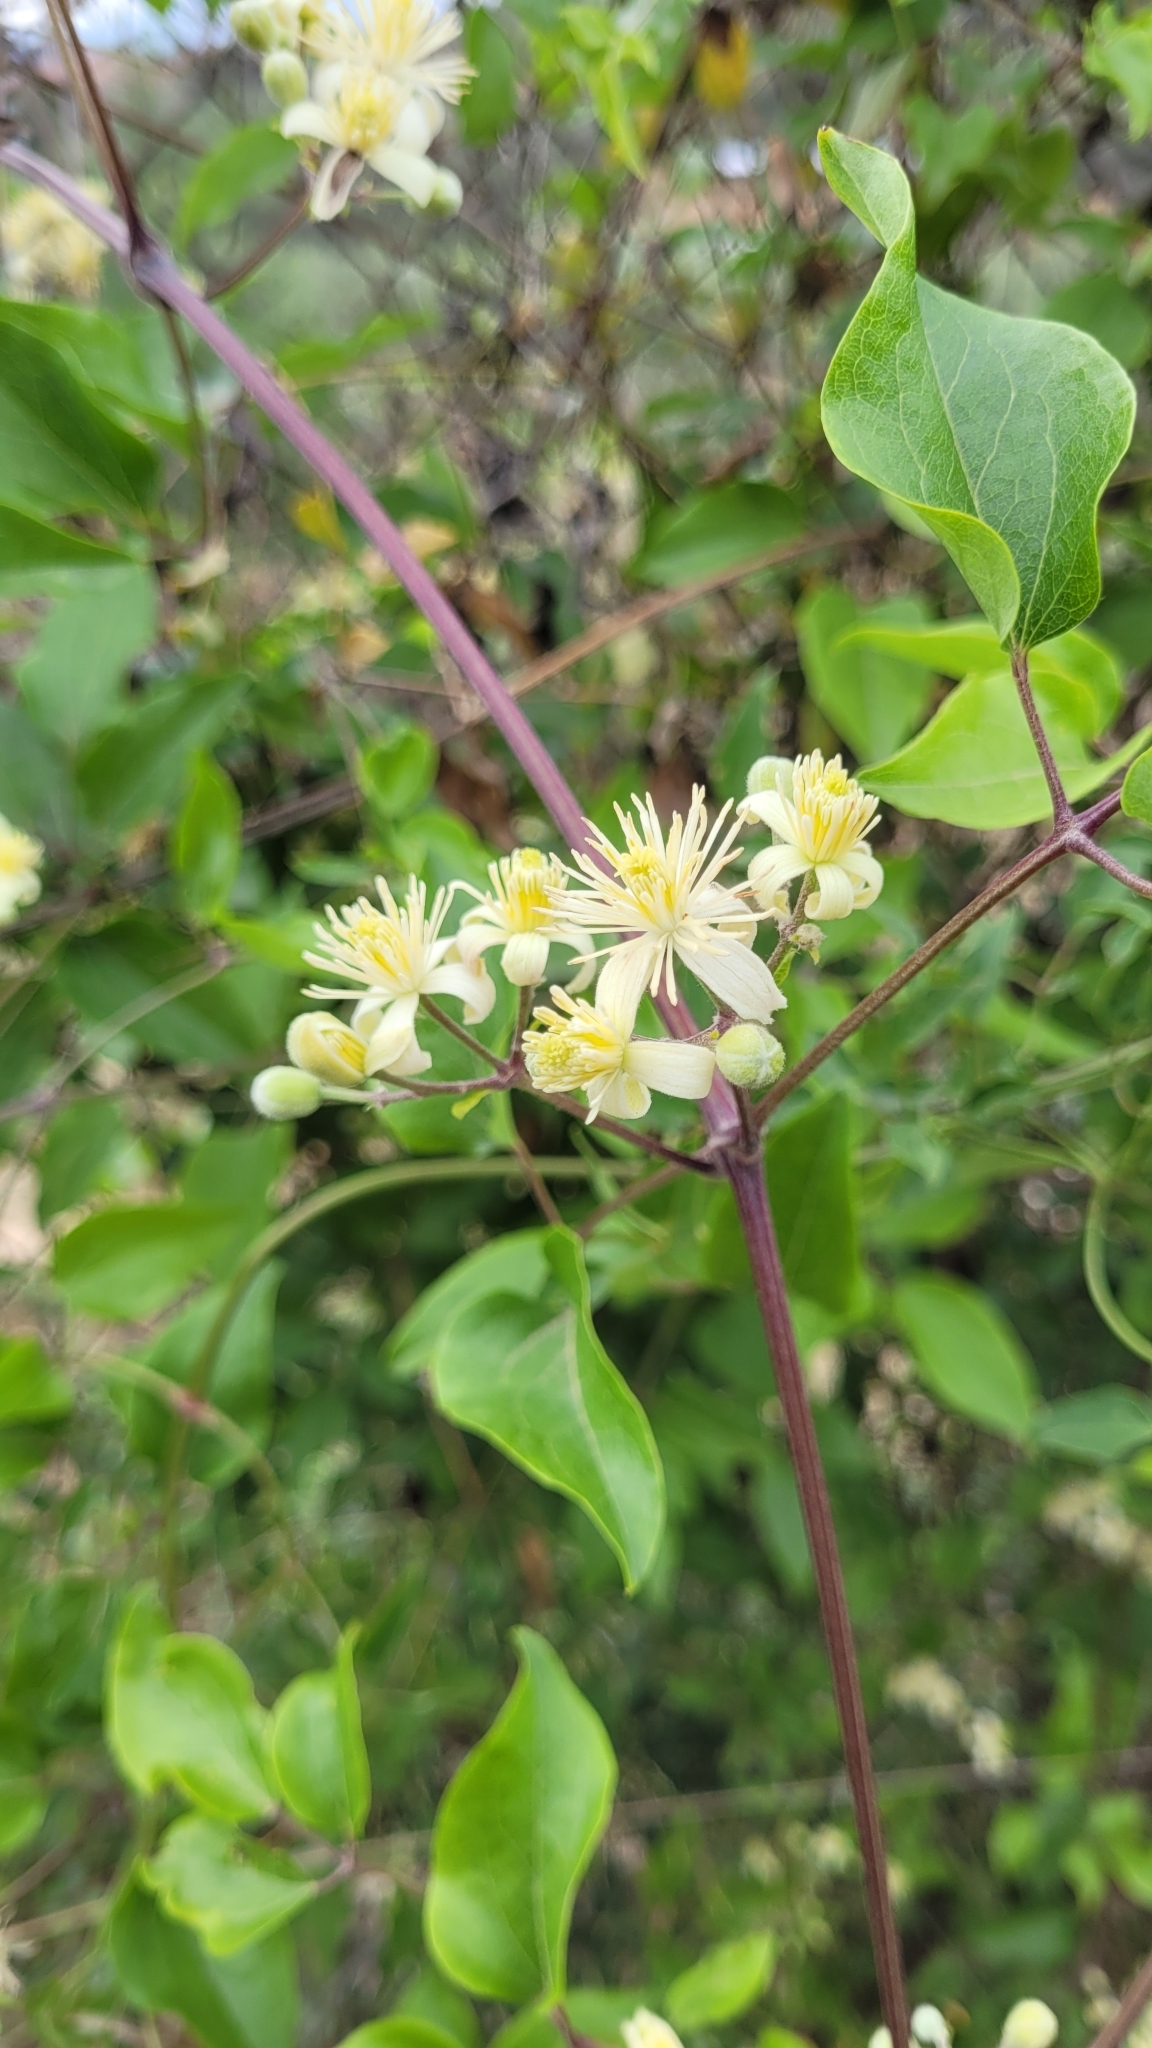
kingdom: Plantae
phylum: Tracheophyta
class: Magnoliopsida
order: Ranunculales
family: Ranunculaceae
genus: Clematis
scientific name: Clematis vitalba
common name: Evergreen clematis
